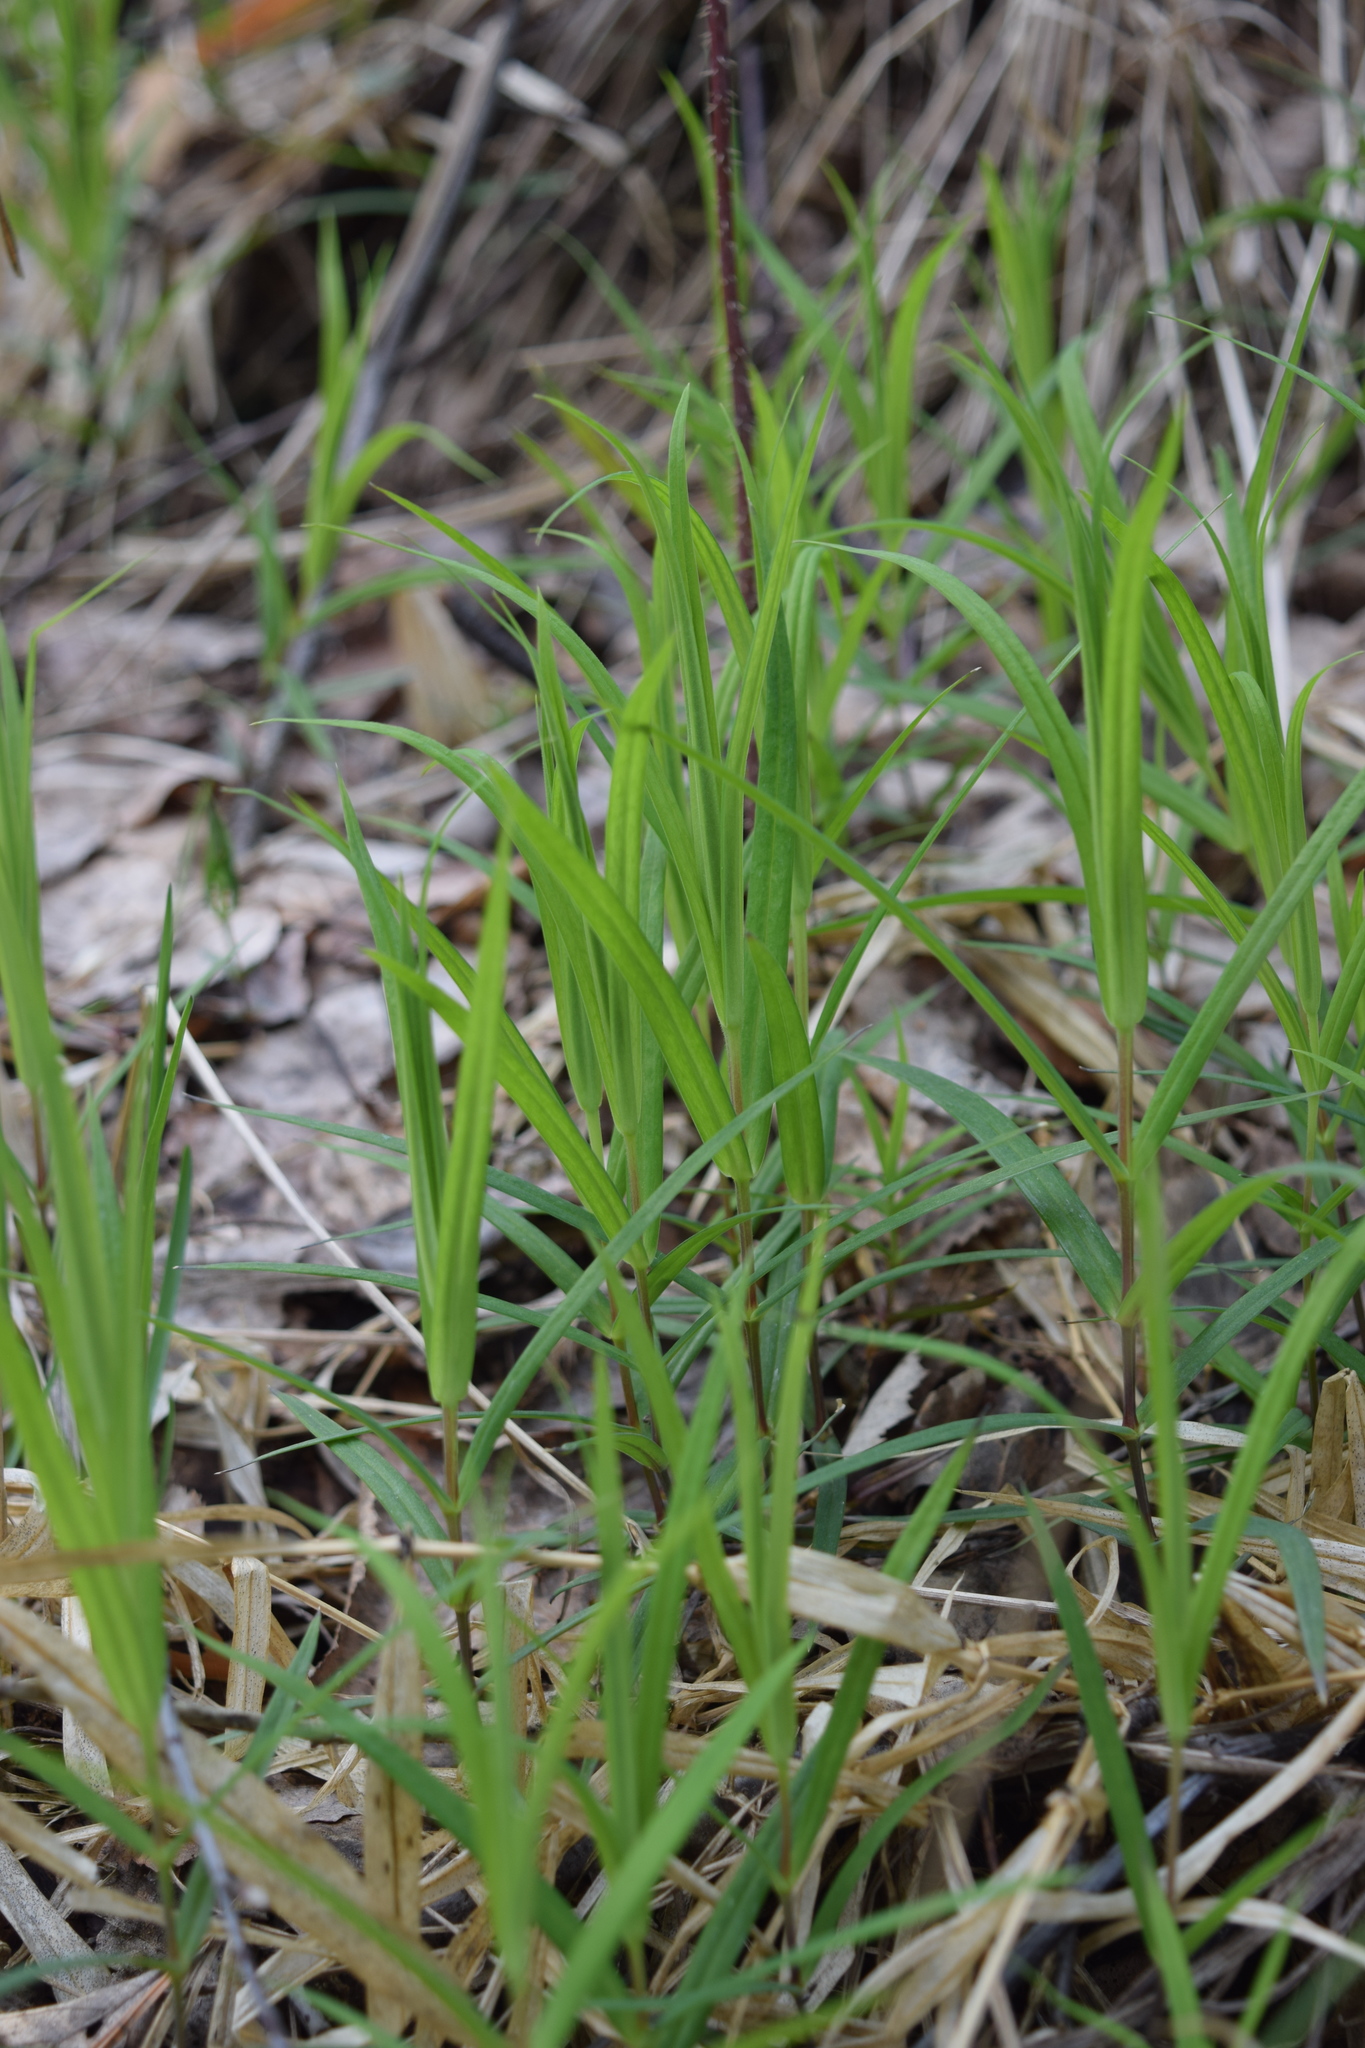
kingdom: Plantae
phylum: Tracheophyta
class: Magnoliopsida
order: Caryophyllales
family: Caryophyllaceae
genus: Rabelera
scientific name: Rabelera holostea
